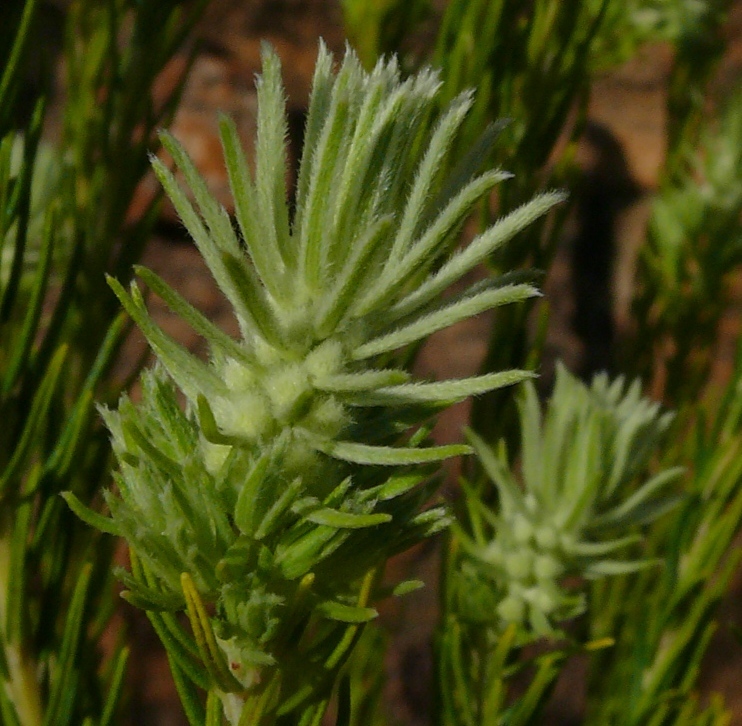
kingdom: Plantae
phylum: Tracheophyta
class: Magnoliopsida
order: Rosales
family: Rhamnaceae
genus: Phylica
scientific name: Phylica ambigua
